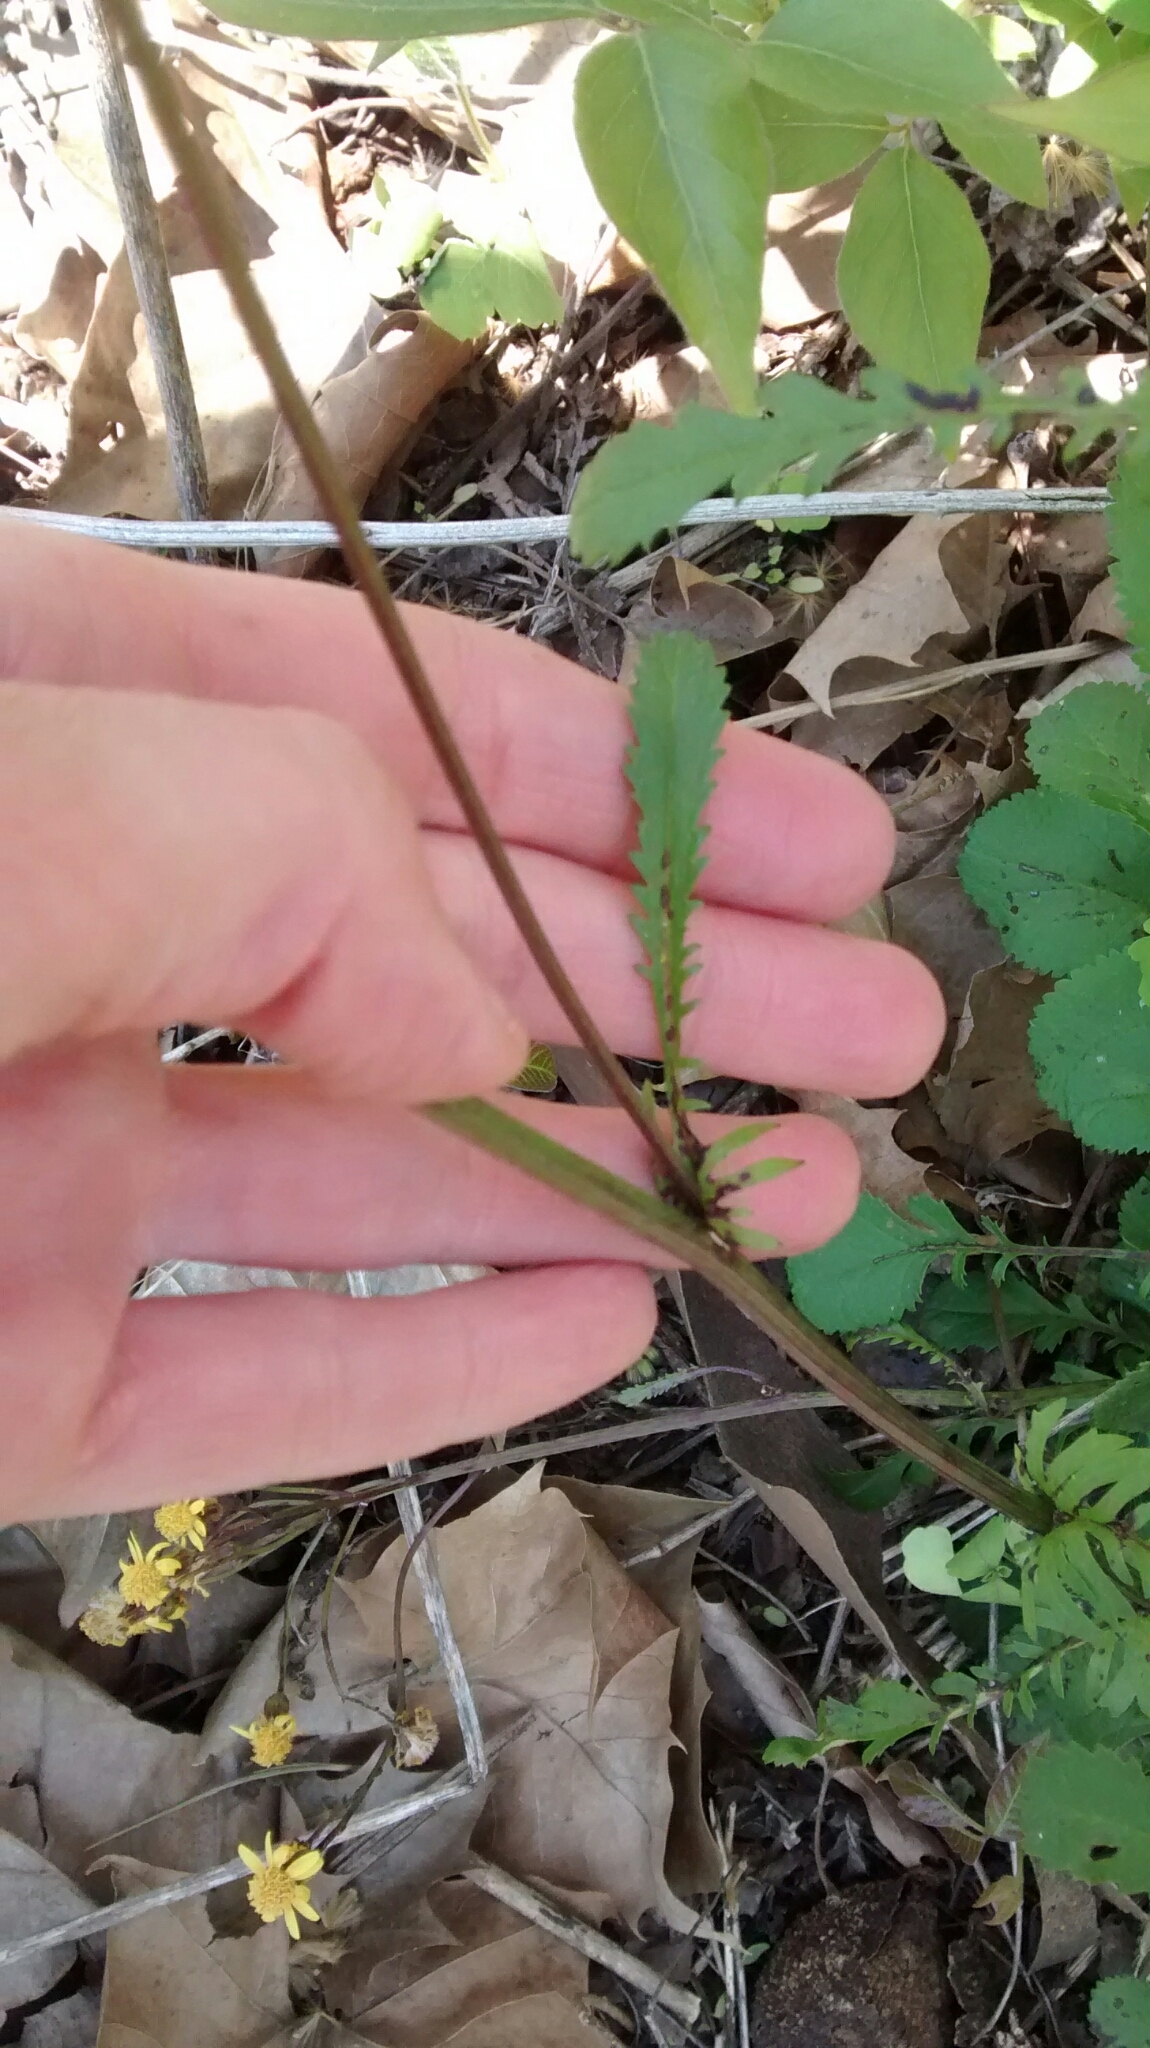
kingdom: Plantae
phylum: Tracheophyta
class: Magnoliopsida
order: Asterales
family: Asteraceae
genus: Packera
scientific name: Packera obovata
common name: Round-leaf ragwort
